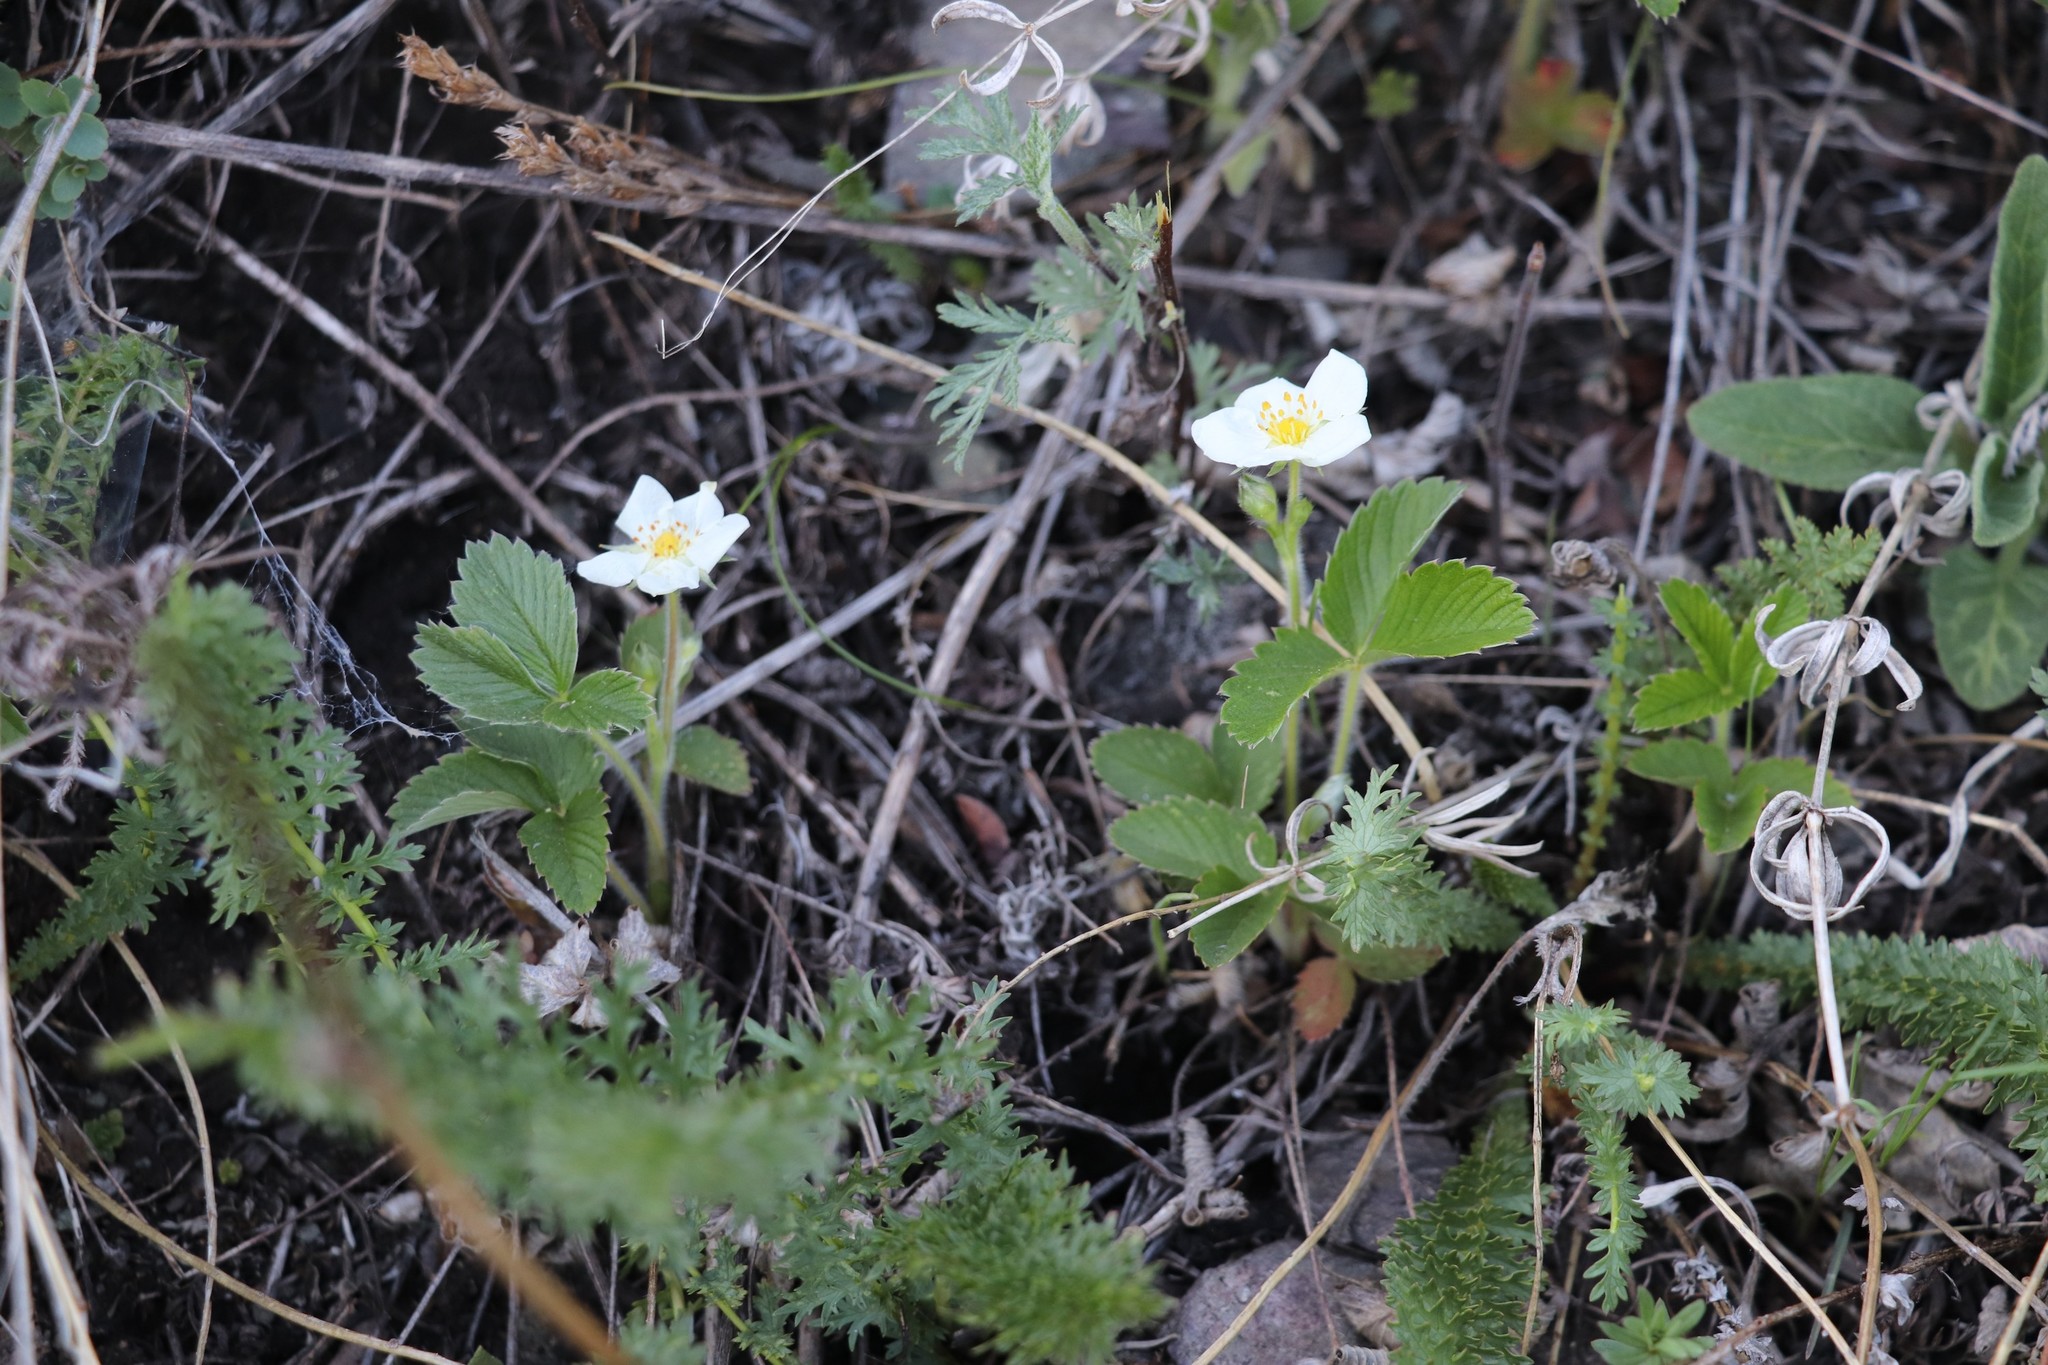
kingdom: Plantae
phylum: Tracheophyta
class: Magnoliopsida
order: Rosales
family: Rosaceae
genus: Fragaria
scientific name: Fragaria viridis
